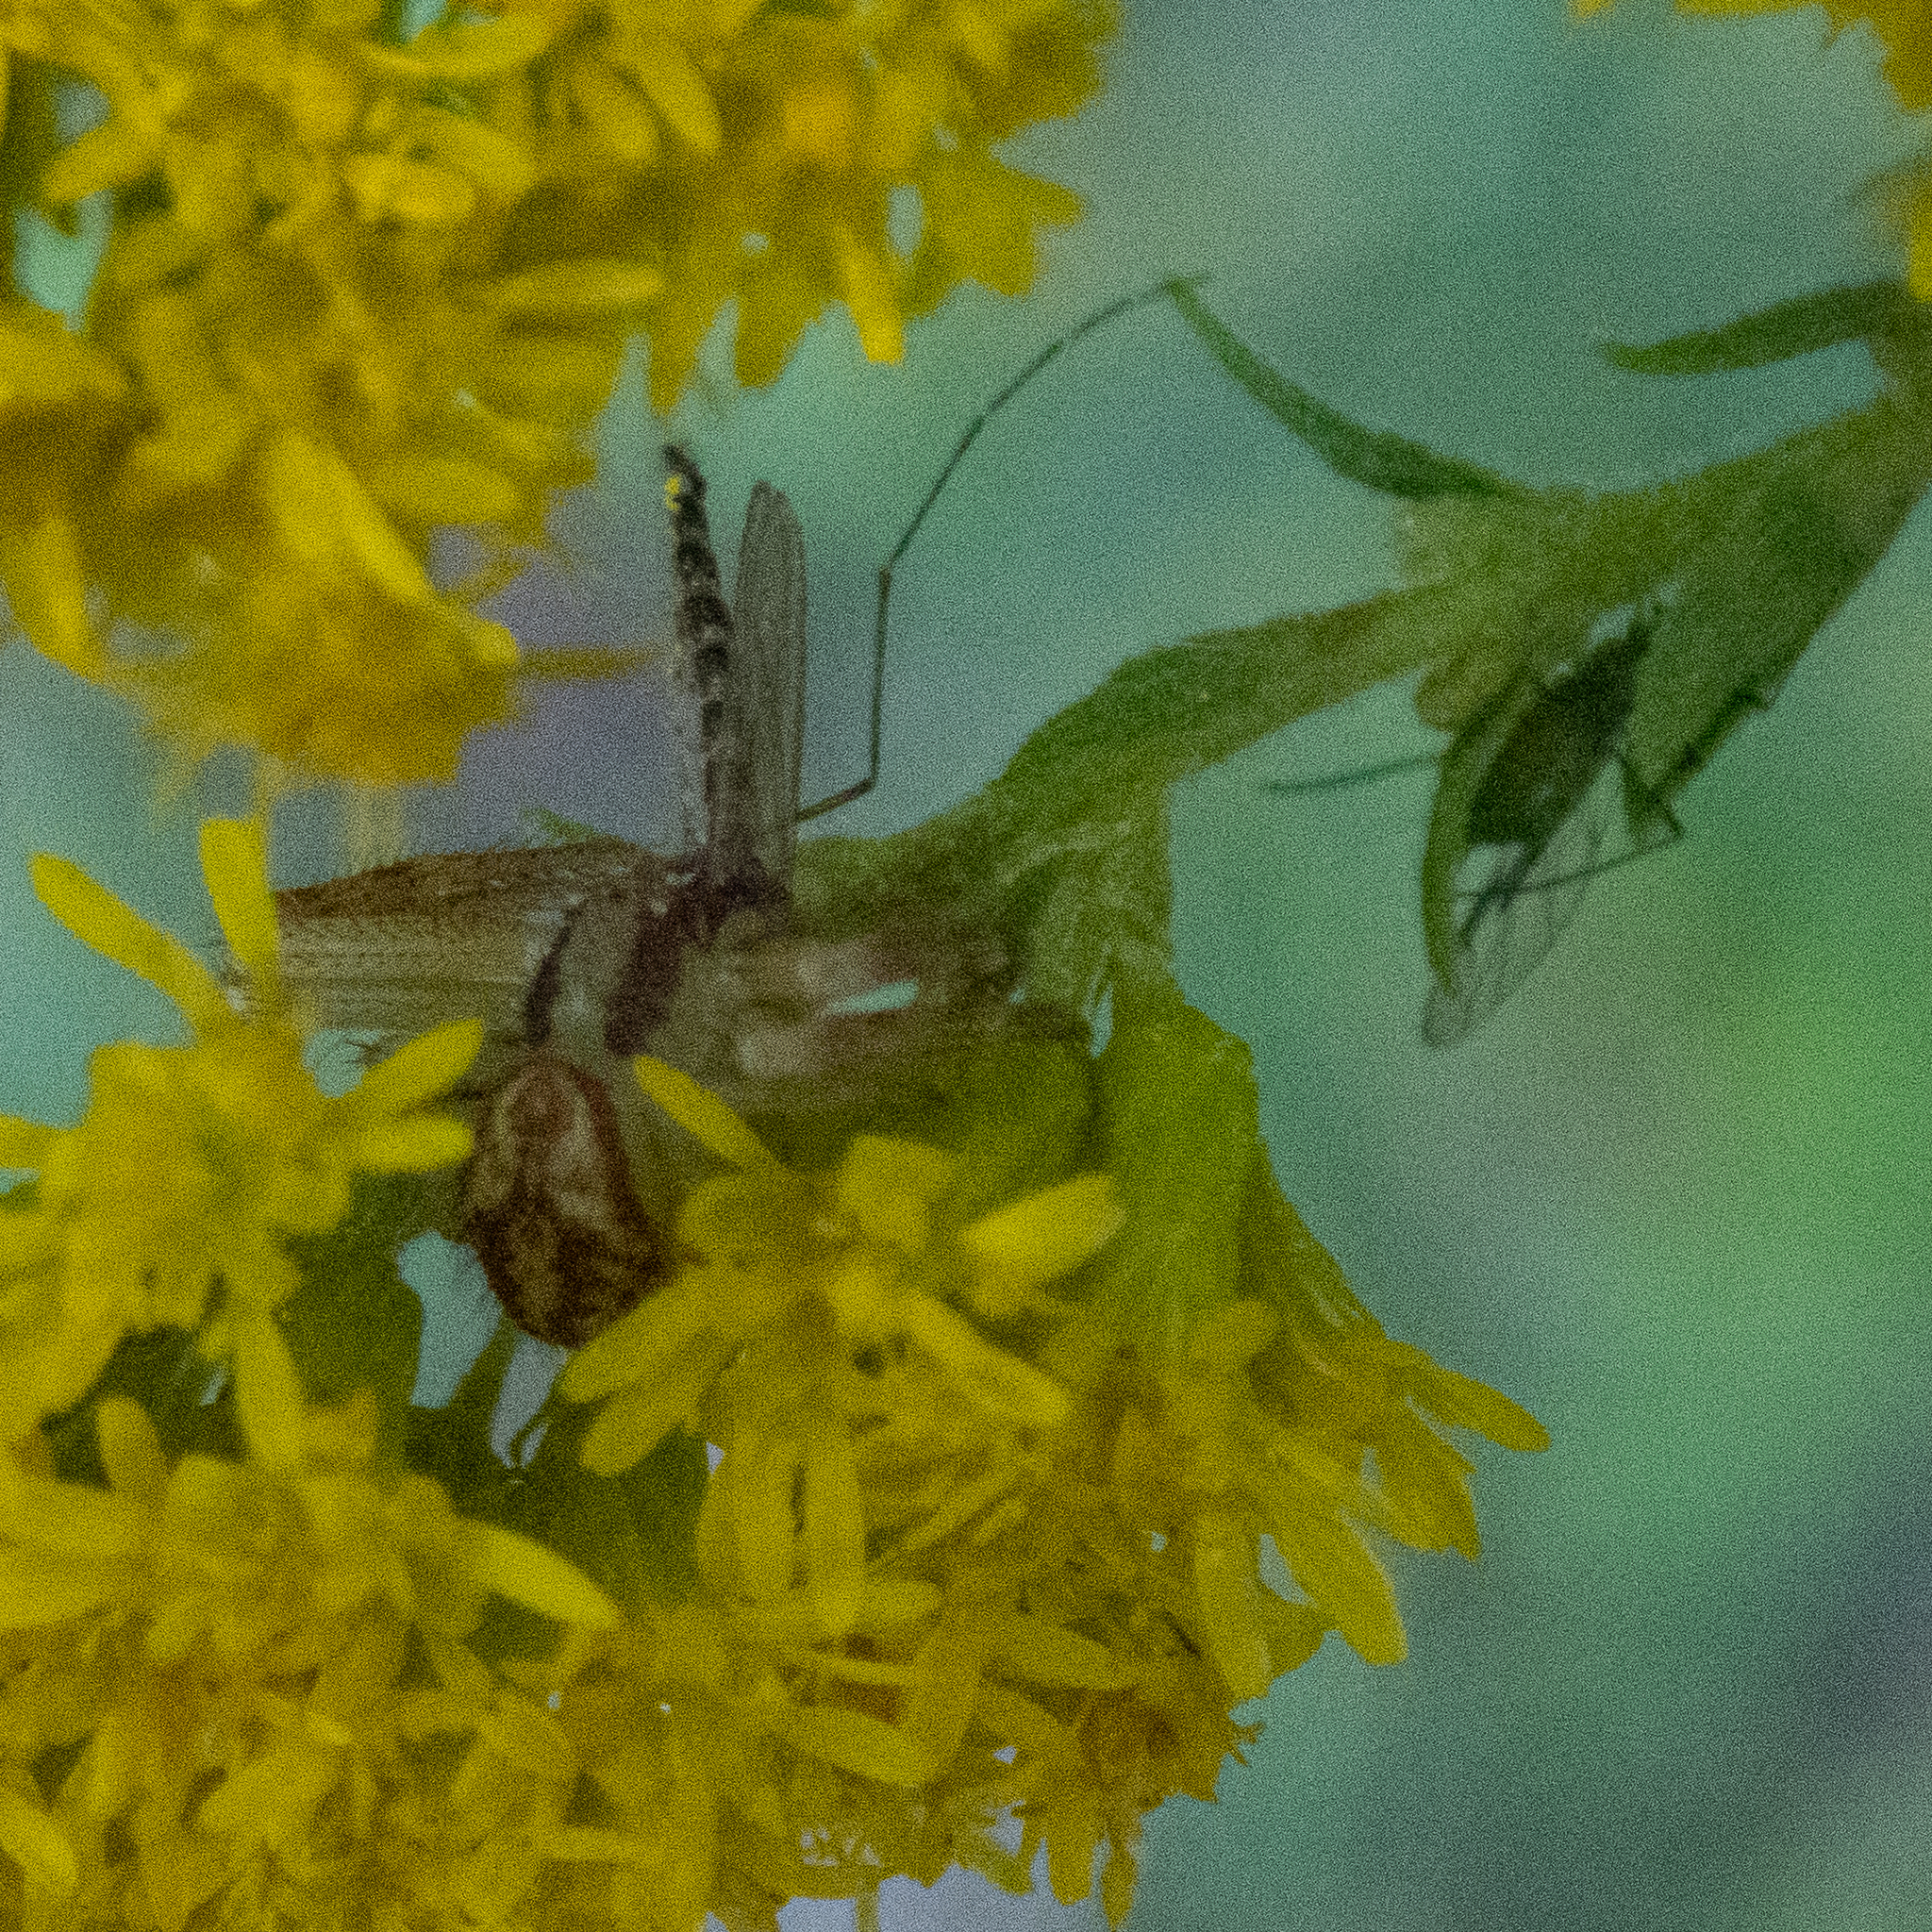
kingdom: Animalia
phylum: Arthropoda
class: Arachnida
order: Araneae
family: Thomisidae
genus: Mecaphesa
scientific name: Mecaphesa asperata
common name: Crab spiders
